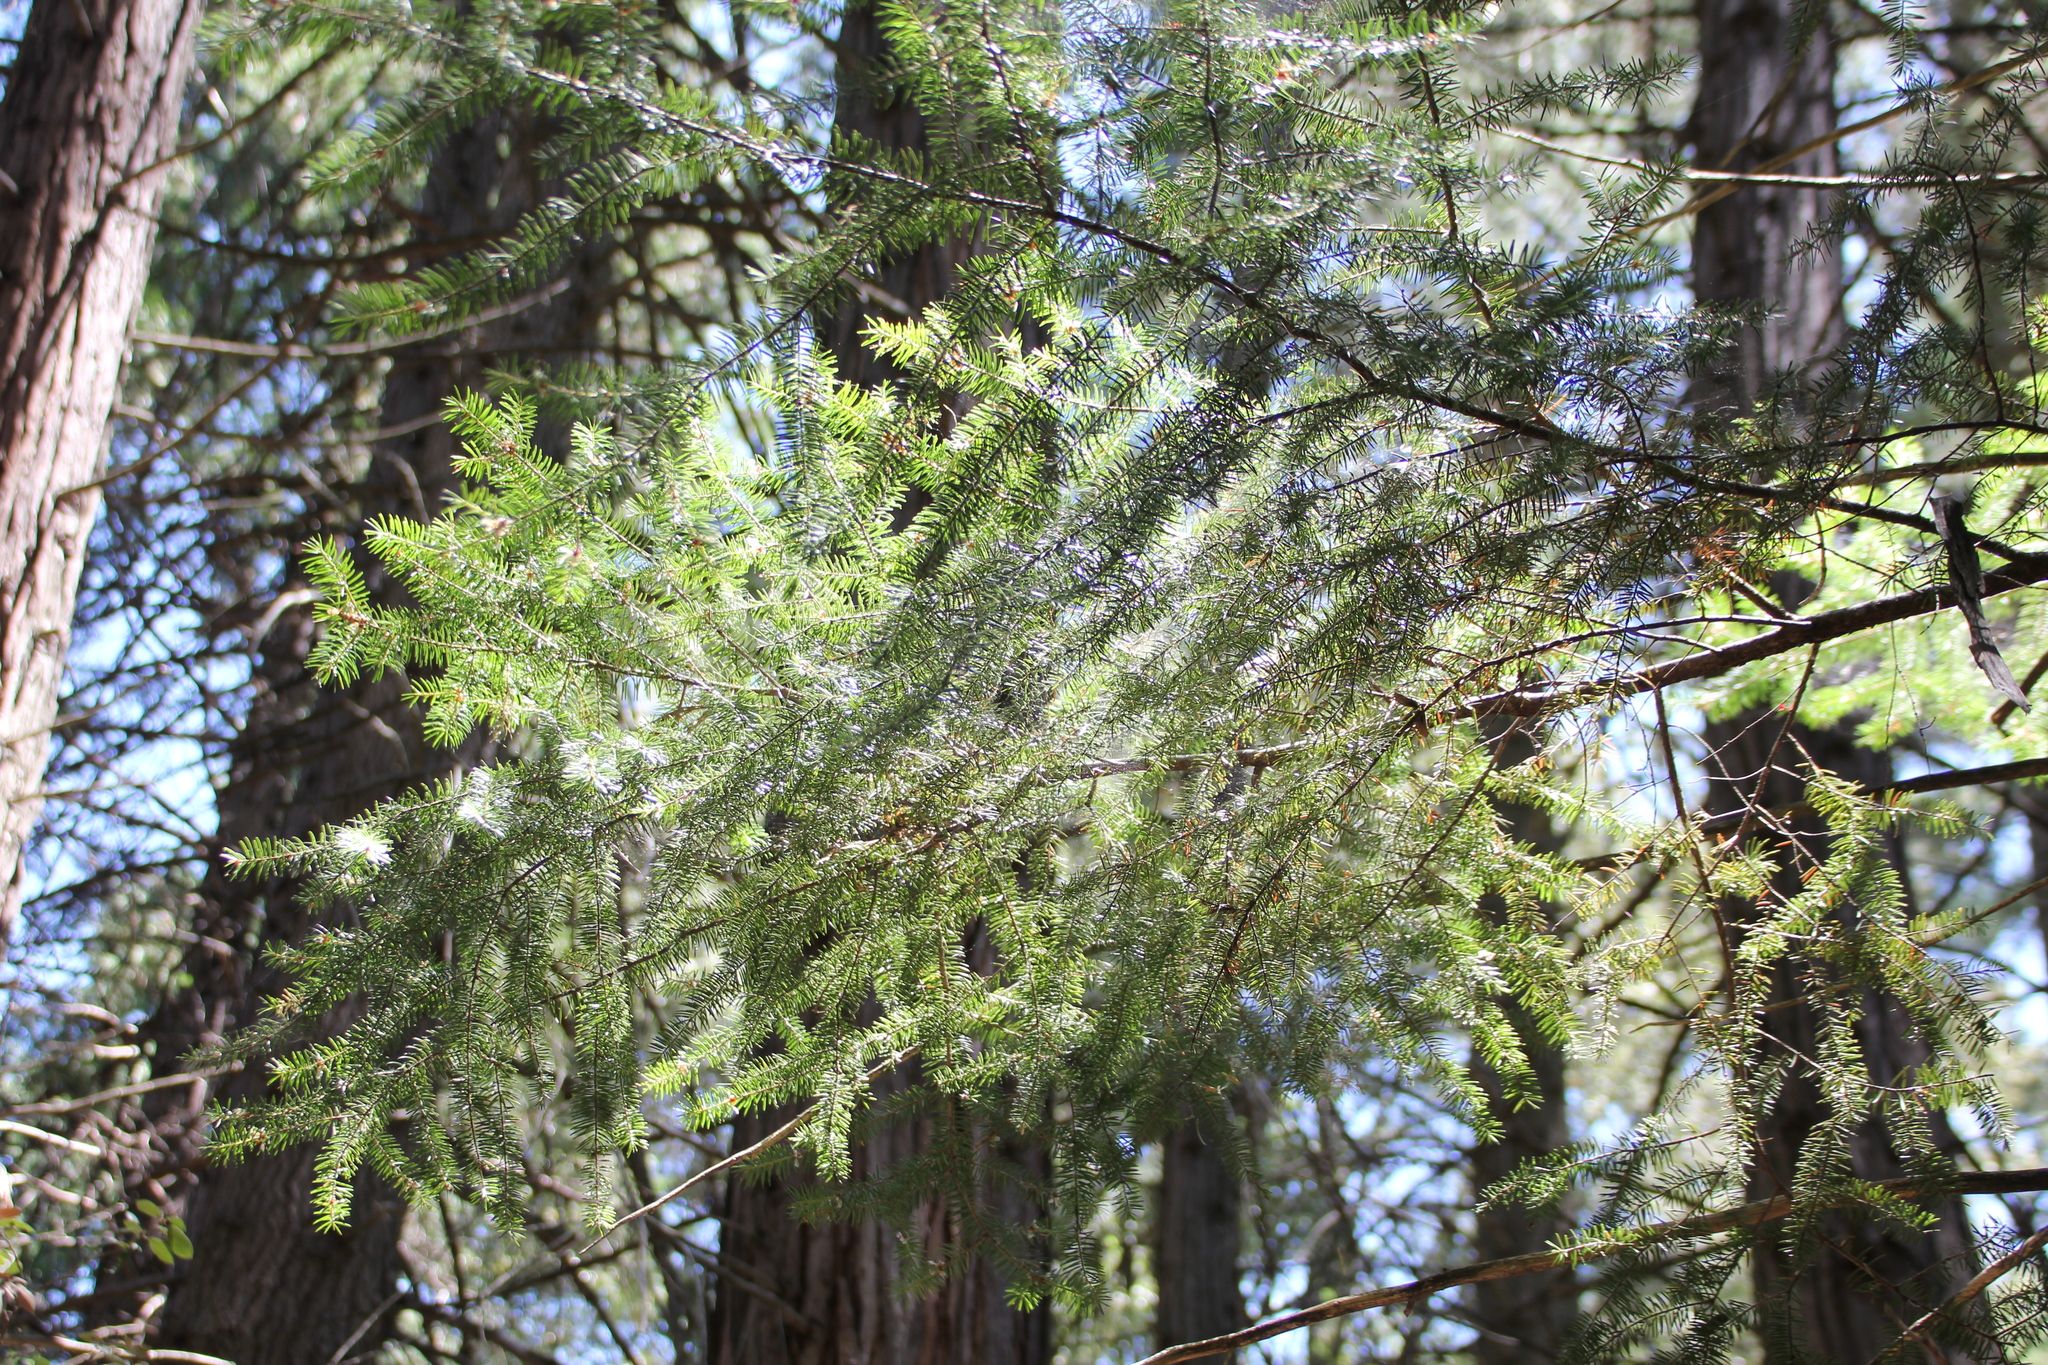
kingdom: Plantae
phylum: Tracheophyta
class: Pinopsida
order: Pinales
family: Pinaceae
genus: Abies
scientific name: Abies concolor
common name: Colorado fir
